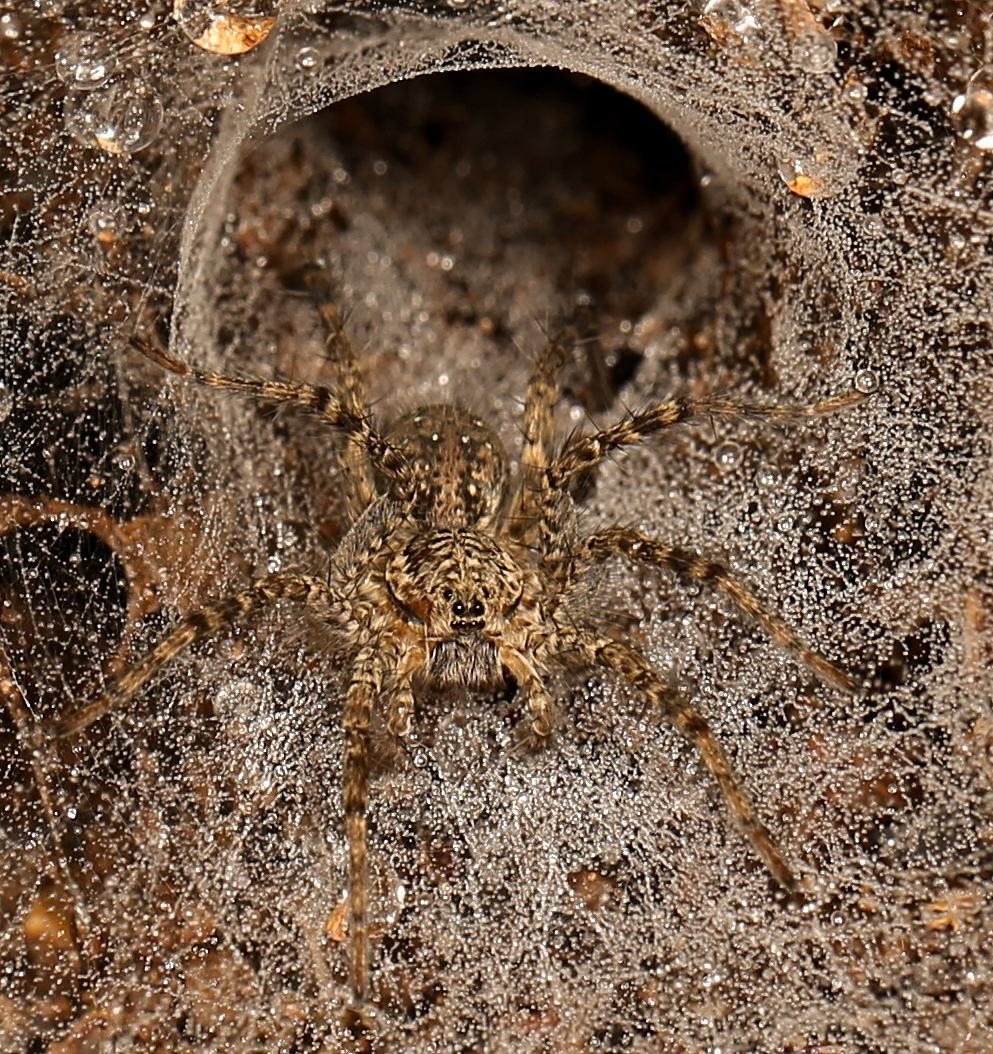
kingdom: Animalia
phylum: Arthropoda
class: Arachnida
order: Araneae
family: Lycosidae
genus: Hippasa
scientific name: Hippasa australis
